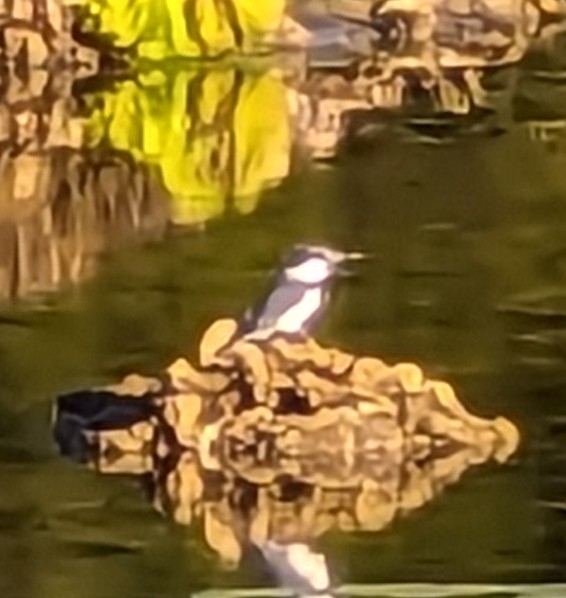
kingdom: Animalia
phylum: Chordata
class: Aves
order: Coraciiformes
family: Alcedinidae
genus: Megaceryle
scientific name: Megaceryle alcyon
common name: Belted kingfisher
